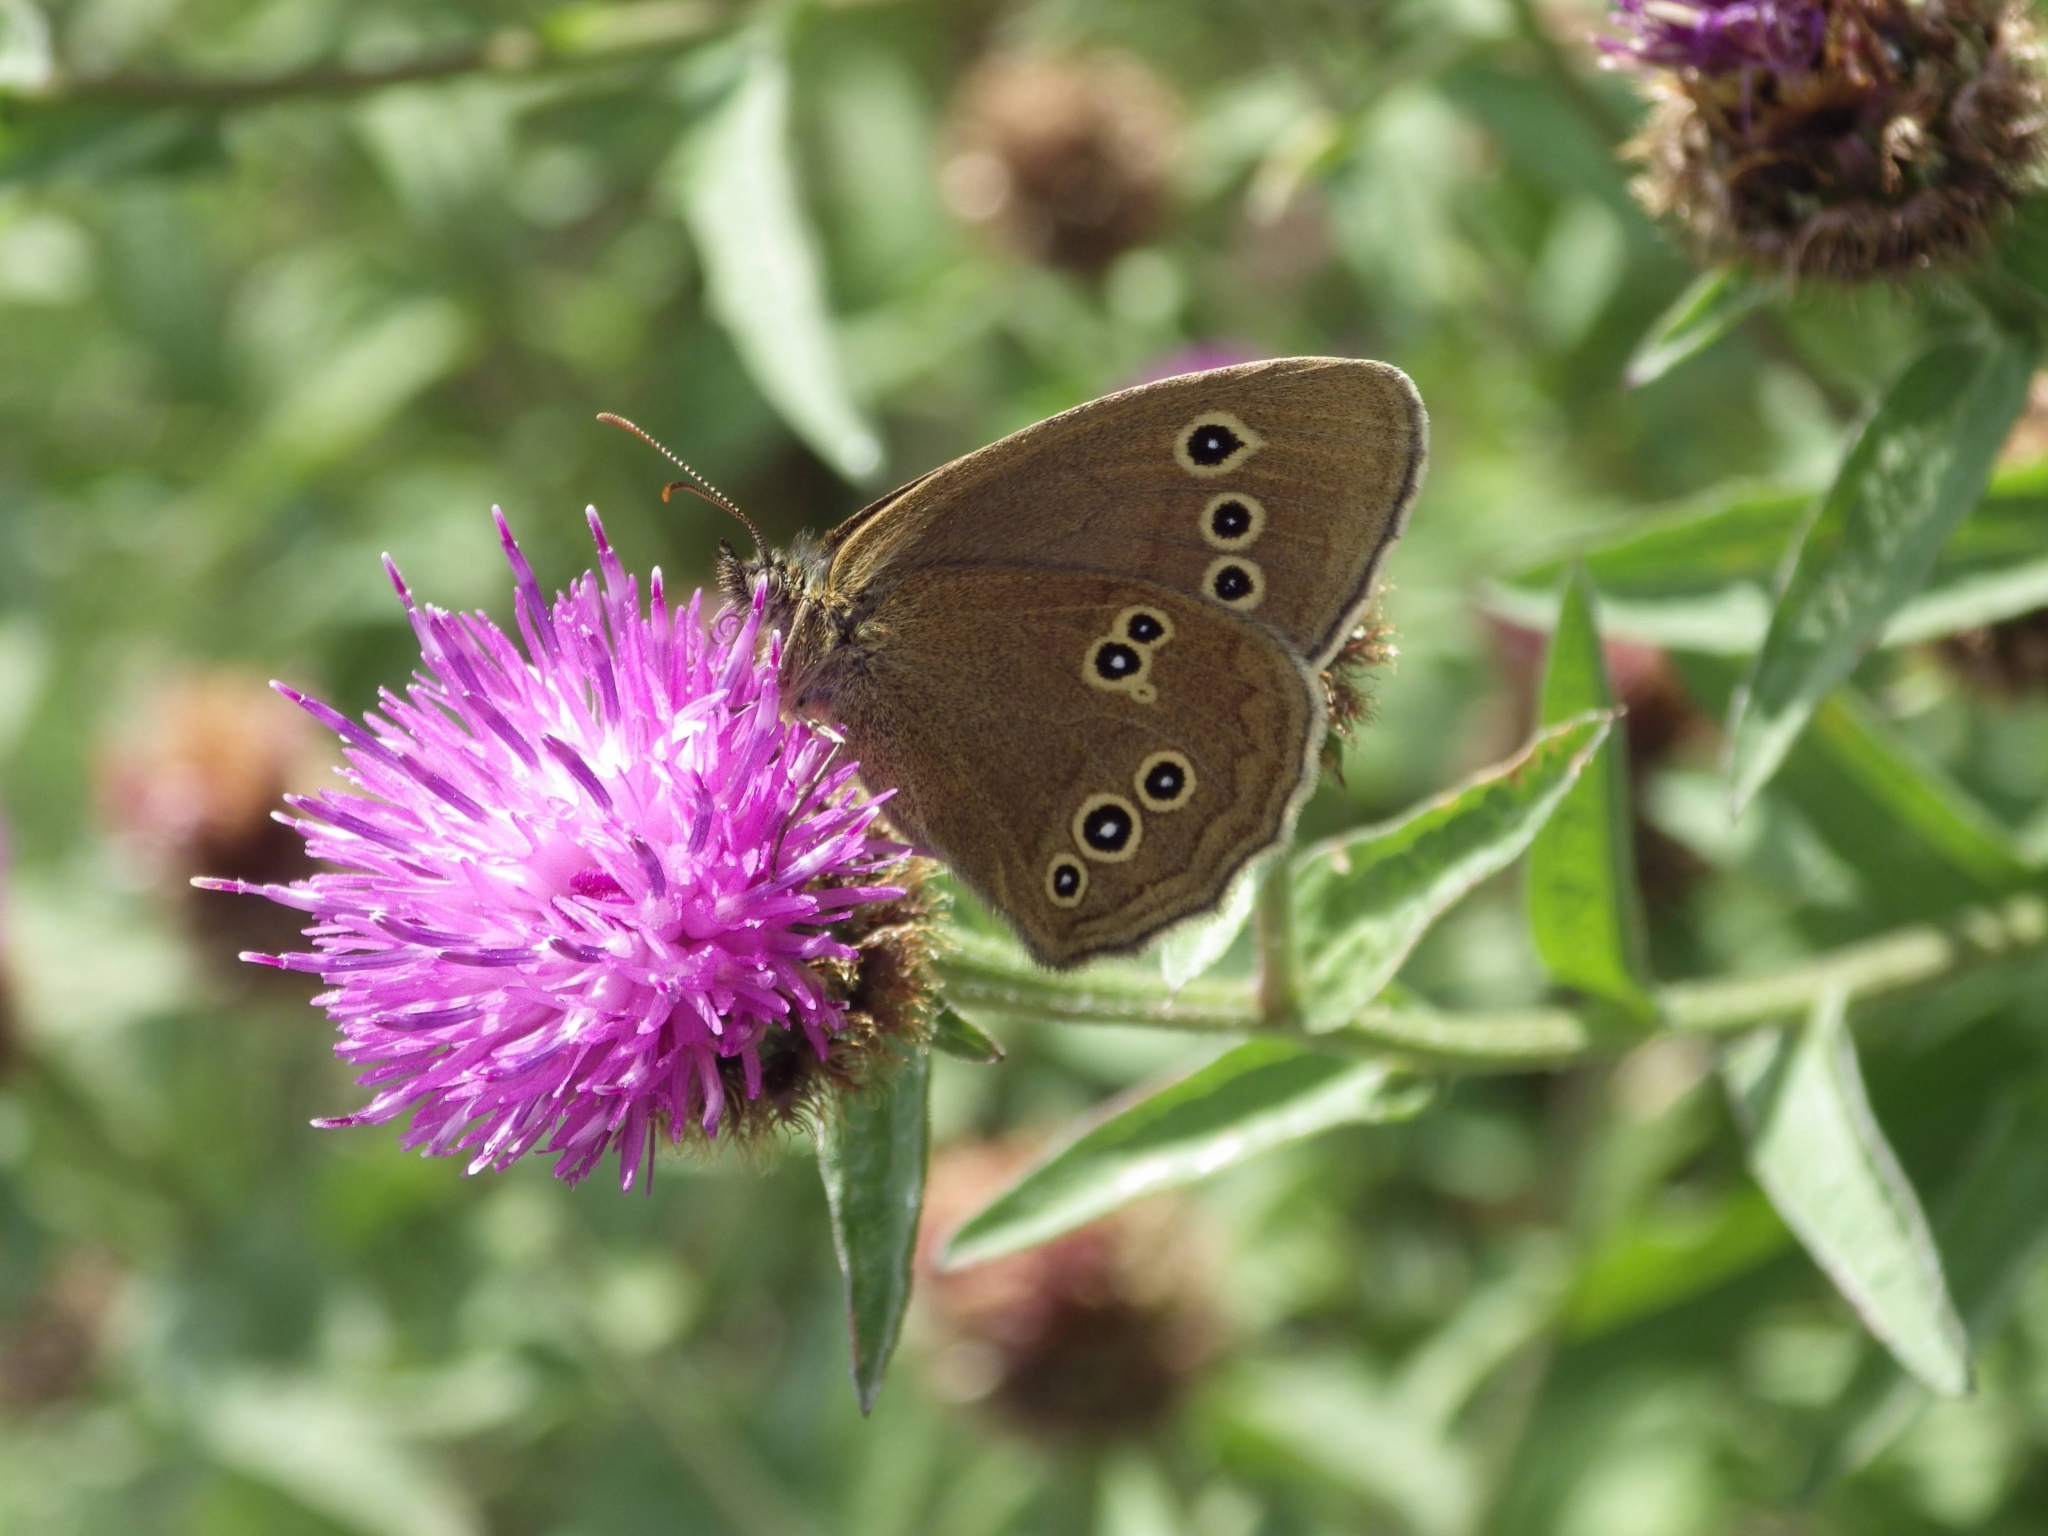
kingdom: Animalia
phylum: Arthropoda
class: Insecta
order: Lepidoptera
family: Nymphalidae
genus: Aphantopus
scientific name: Aphantopus hyperantus
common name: Ringlet
